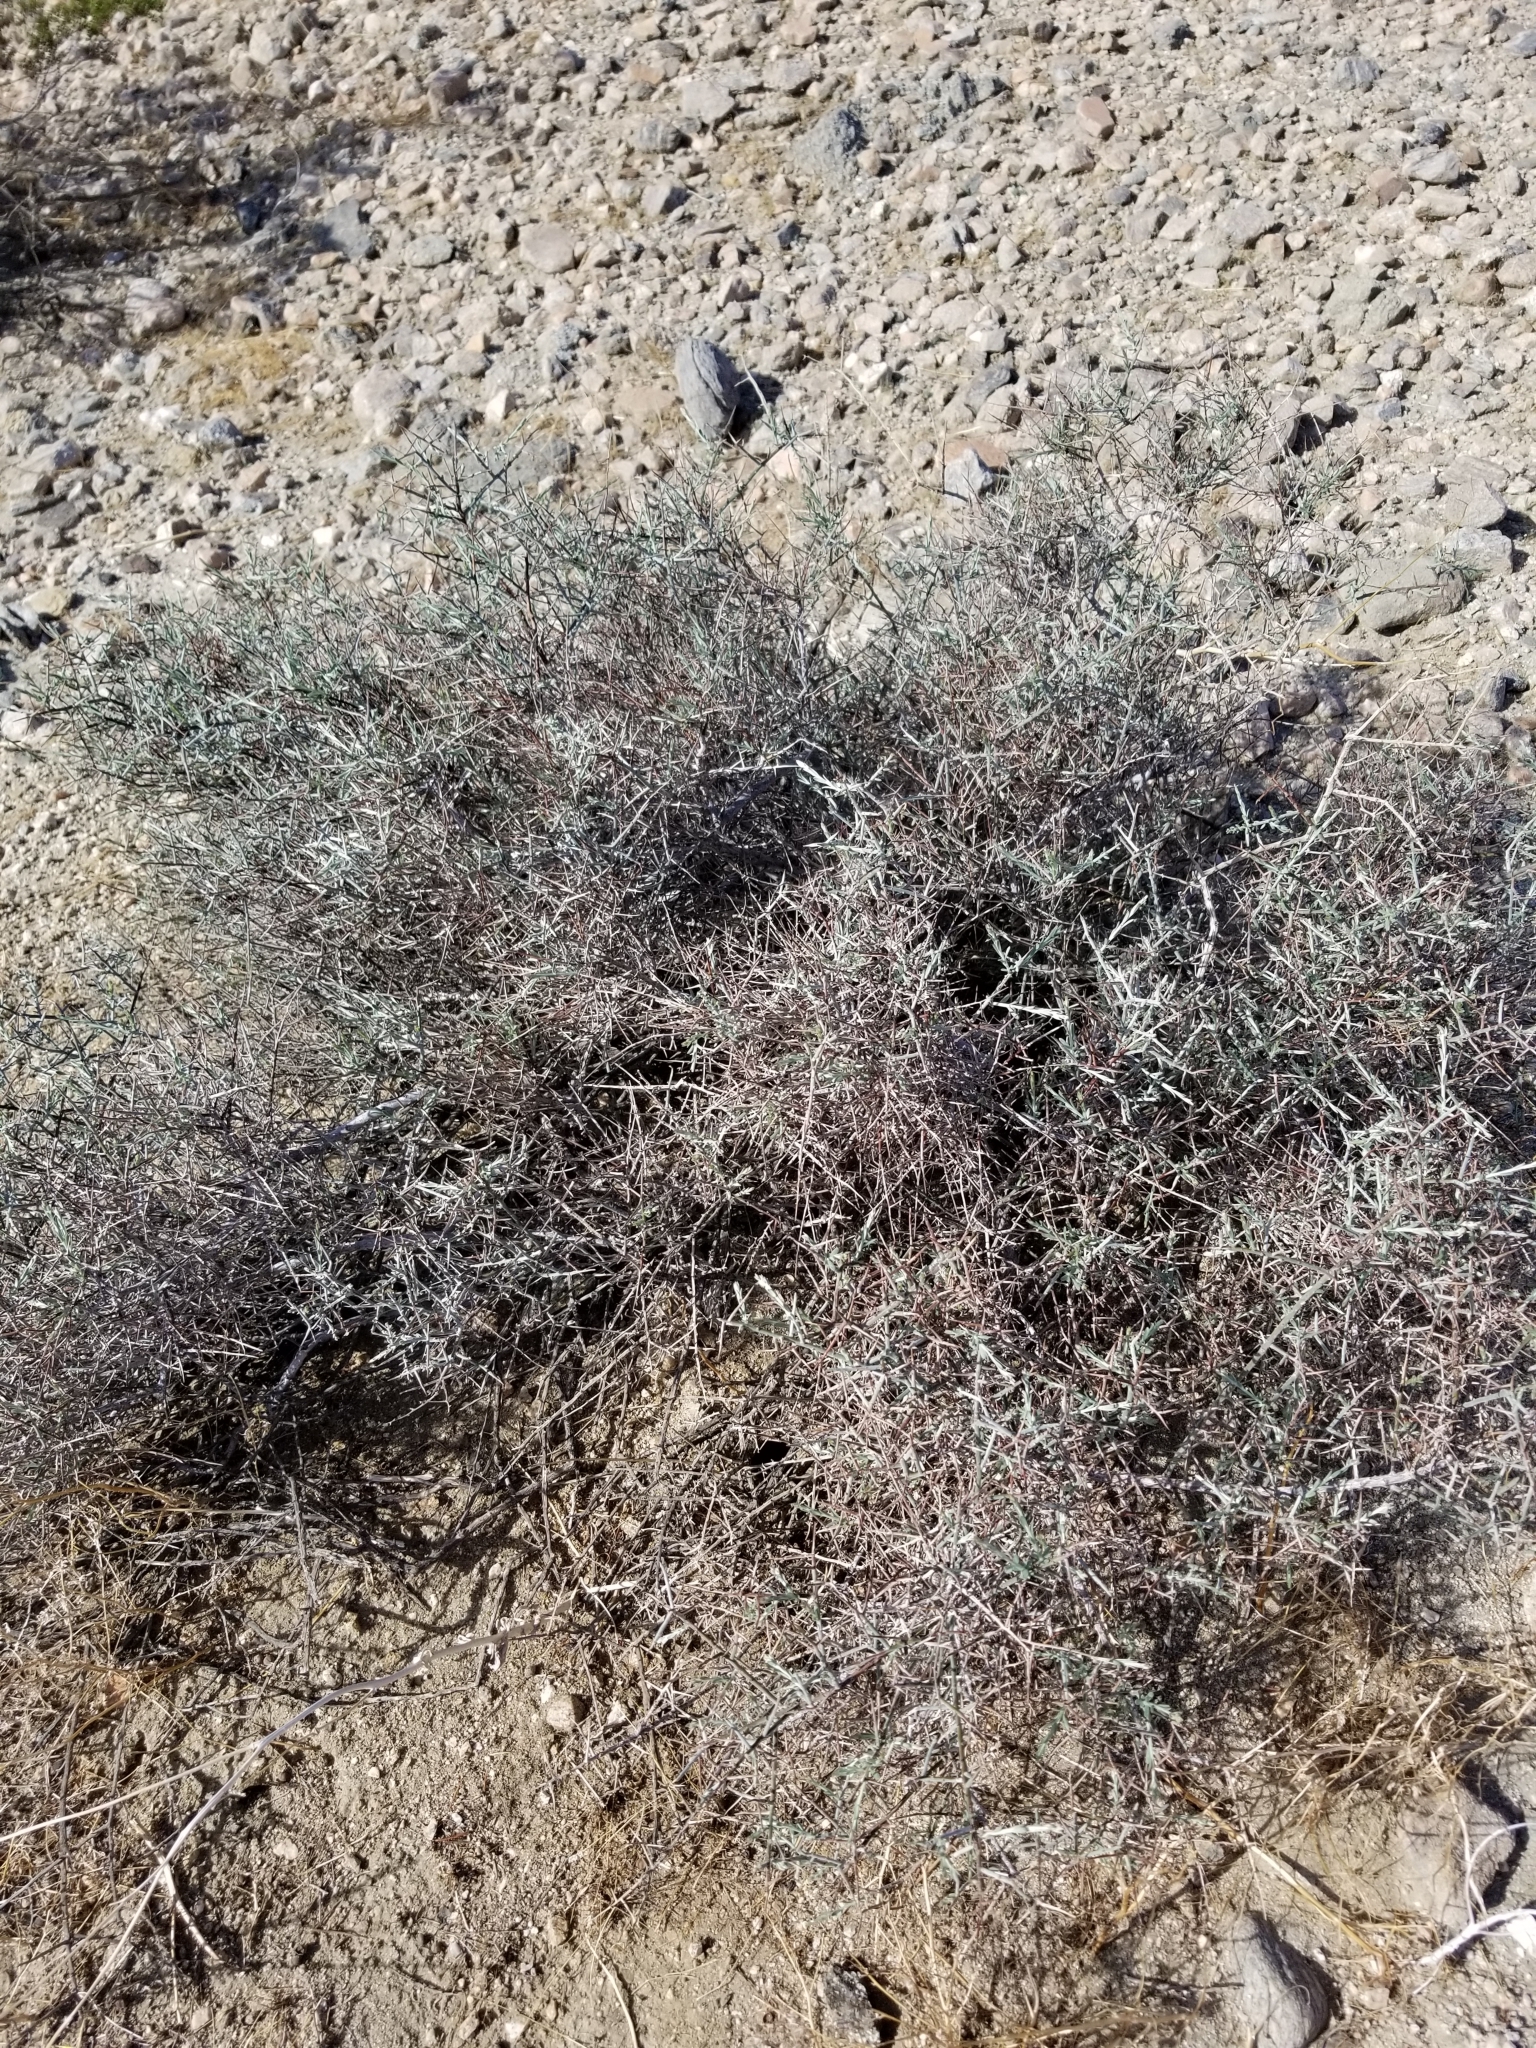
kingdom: Plantae
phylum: Tracheophyta
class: Magnoliopsida
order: Zygophyllales
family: Krameriaceae
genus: Krameria
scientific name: Krameria bicolor
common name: White ratany
